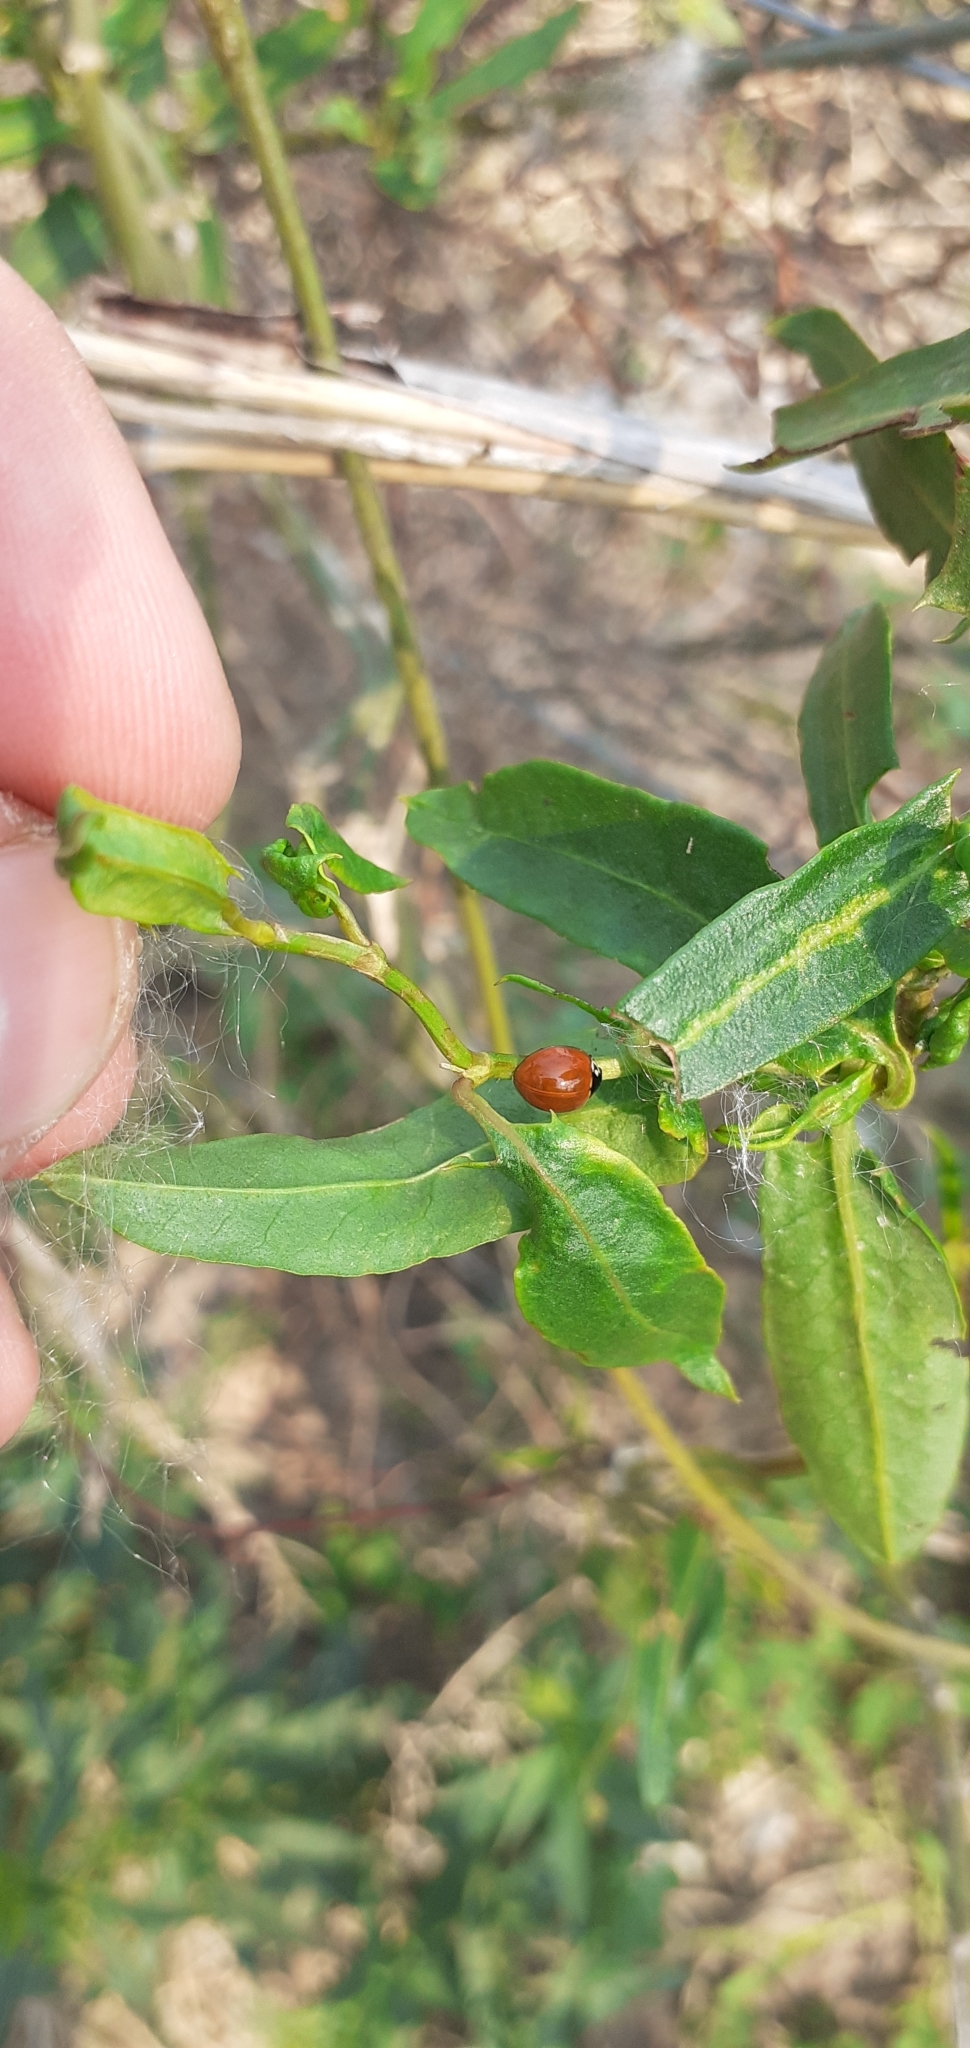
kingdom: Animalia
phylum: Arthropoda
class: Insecta
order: Coleoptera
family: Coccinellidae
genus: Cycloneda
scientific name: Cycloneda sanguinea
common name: Ladybird beetle
